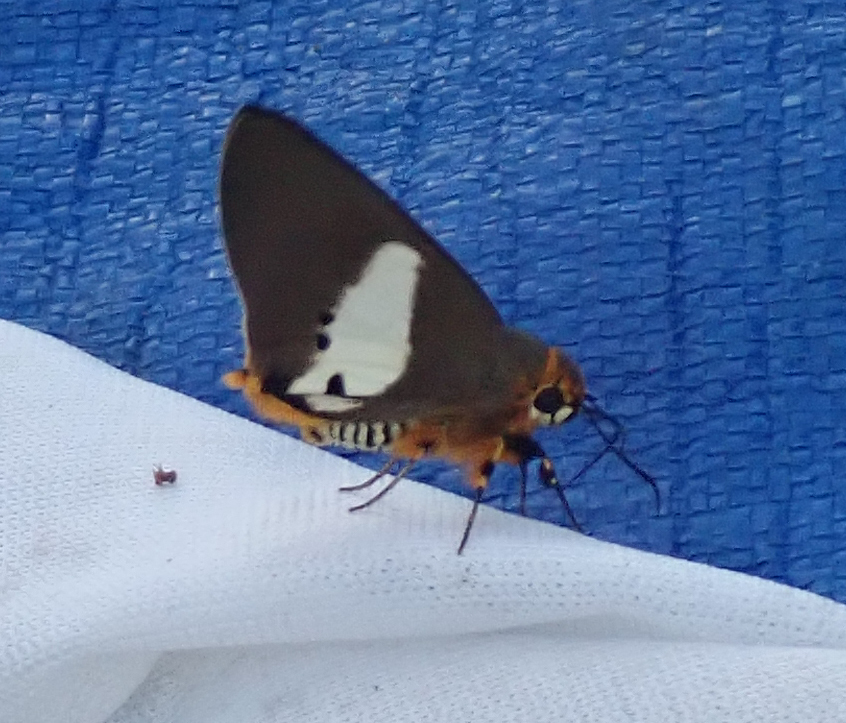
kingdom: Animalia
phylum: Arthropoda
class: Insecta
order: Lepidoptera
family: Hesperiidae
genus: Coeliades
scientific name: Coeliades pisistratus
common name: Two-pip policeman
